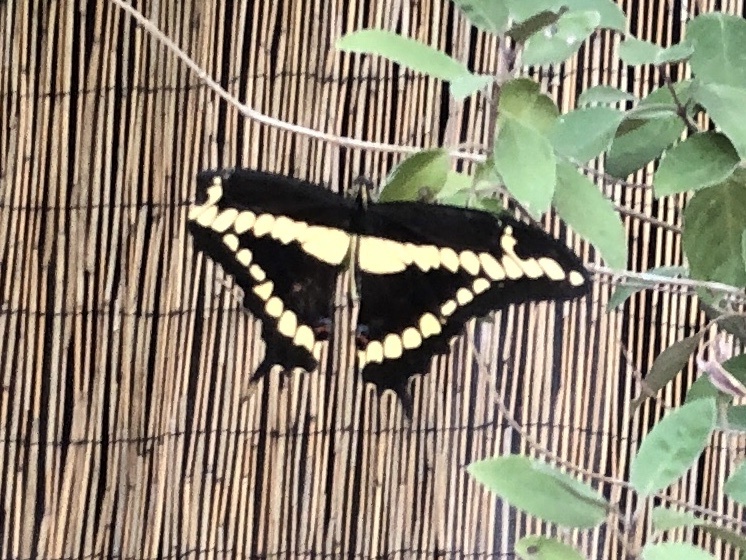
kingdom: Animalia
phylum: Arthropoda
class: Insecta
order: Lepidoptera
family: Papilionidae
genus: Papilio
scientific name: Papilio rumiko
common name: Western giant swallowtail
